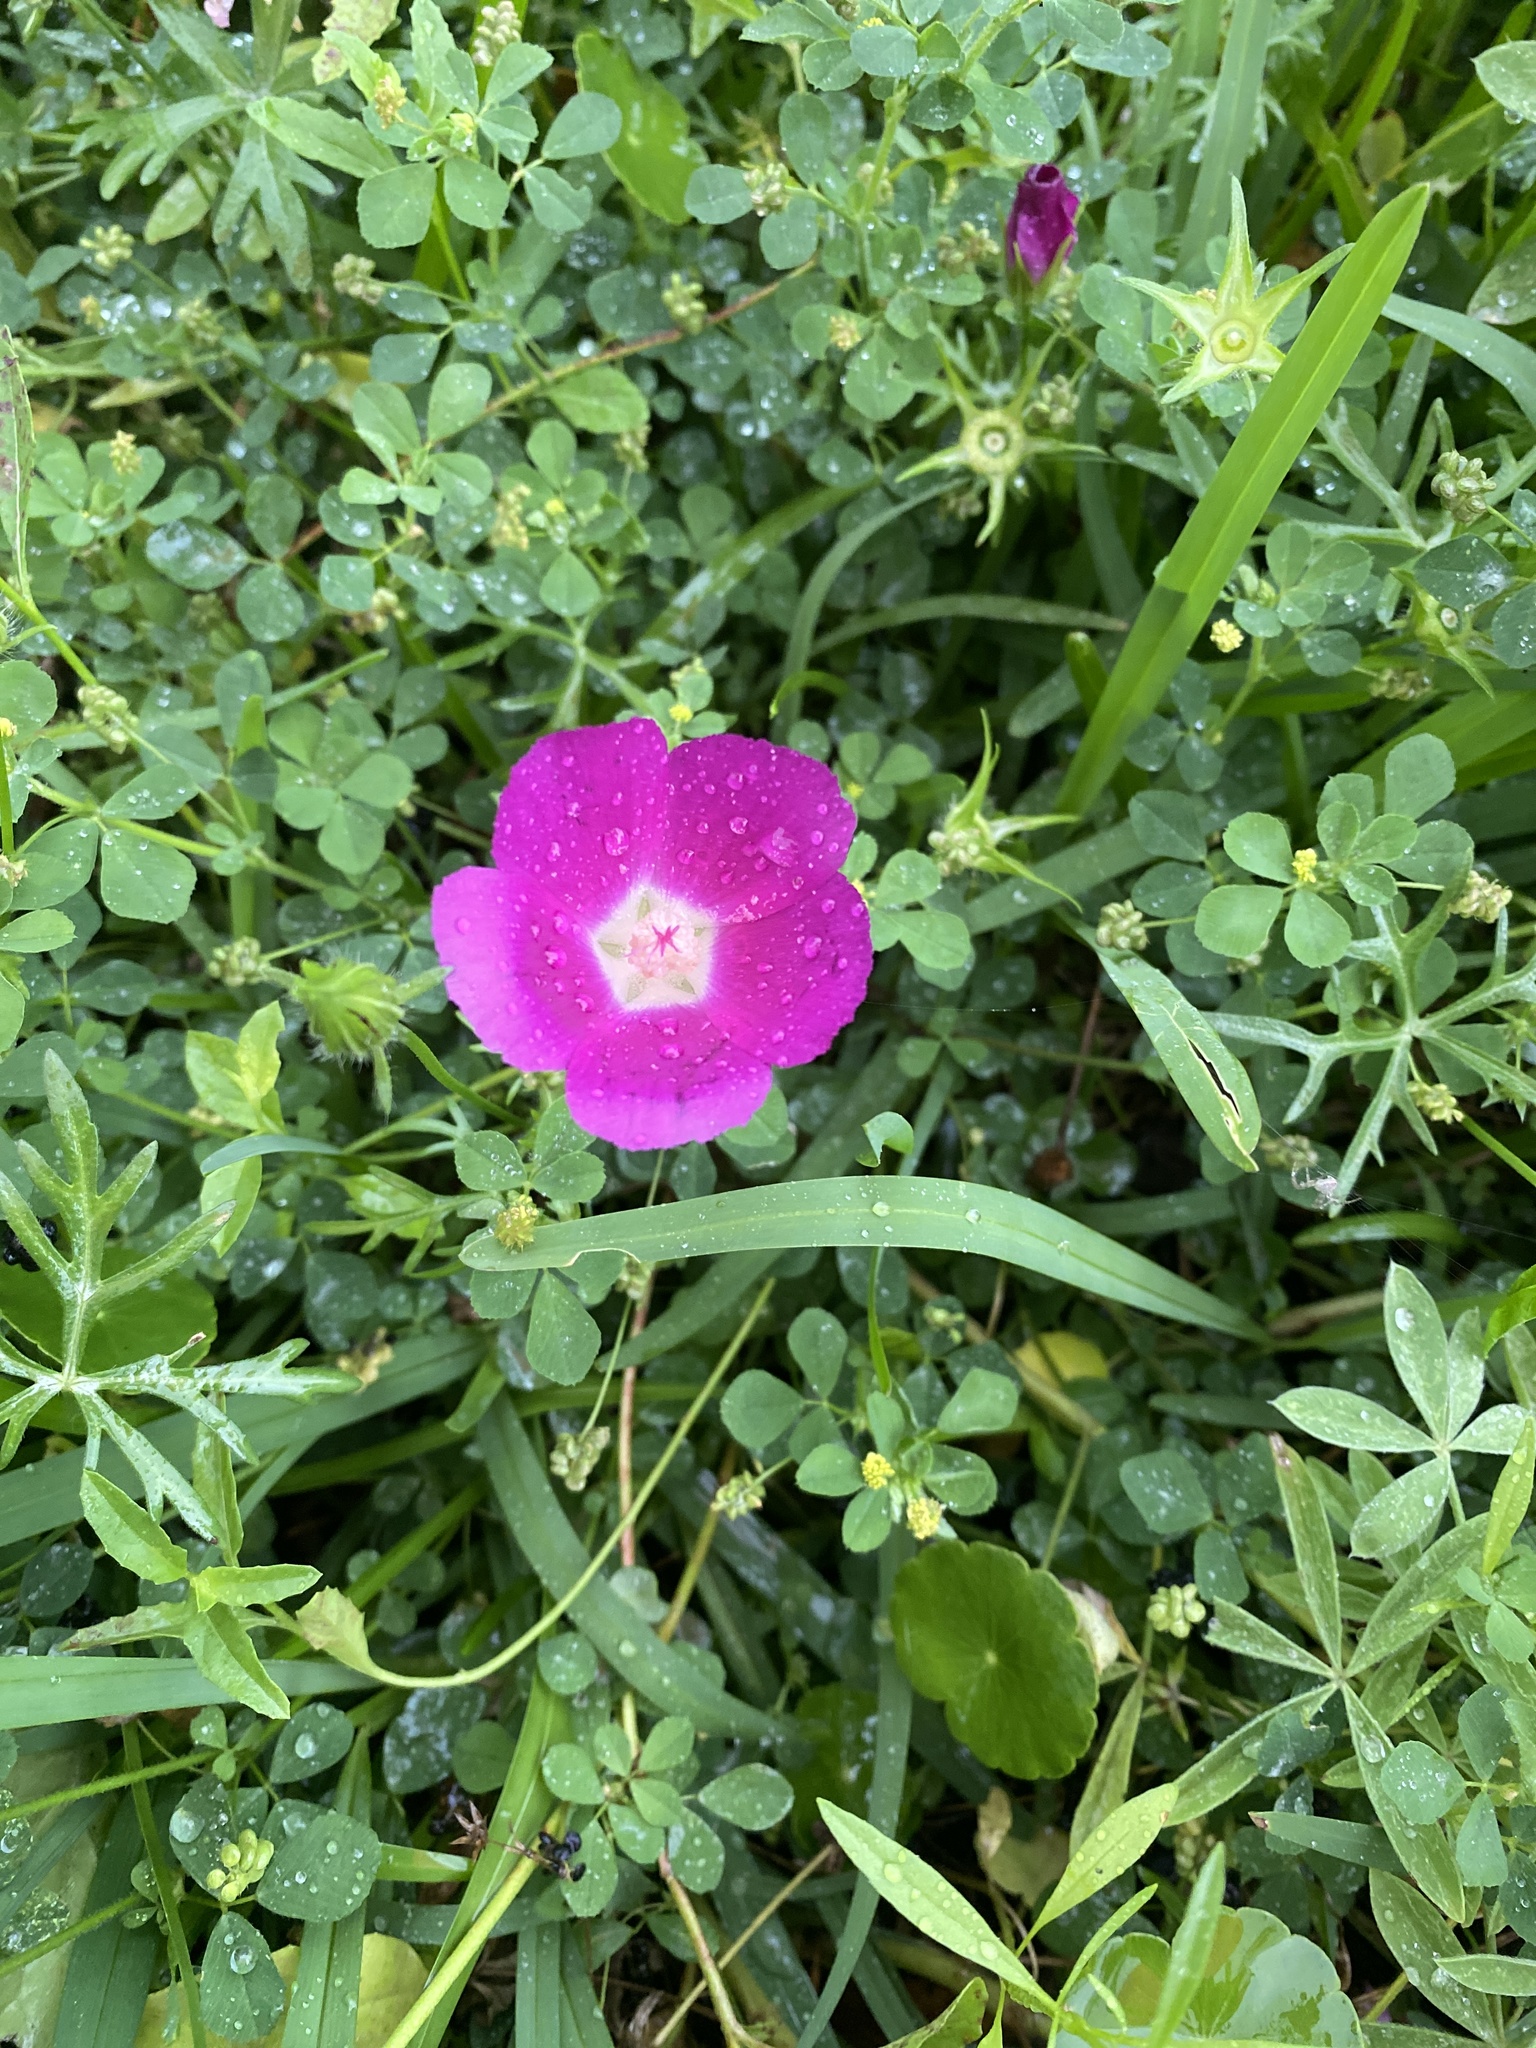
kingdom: Plantae
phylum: Tracheophyta
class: Magnoliopsida
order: Malvales
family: Malvaceae
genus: Callirhoe
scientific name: Callirhoe involucrata
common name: Purple poppy-mallow
